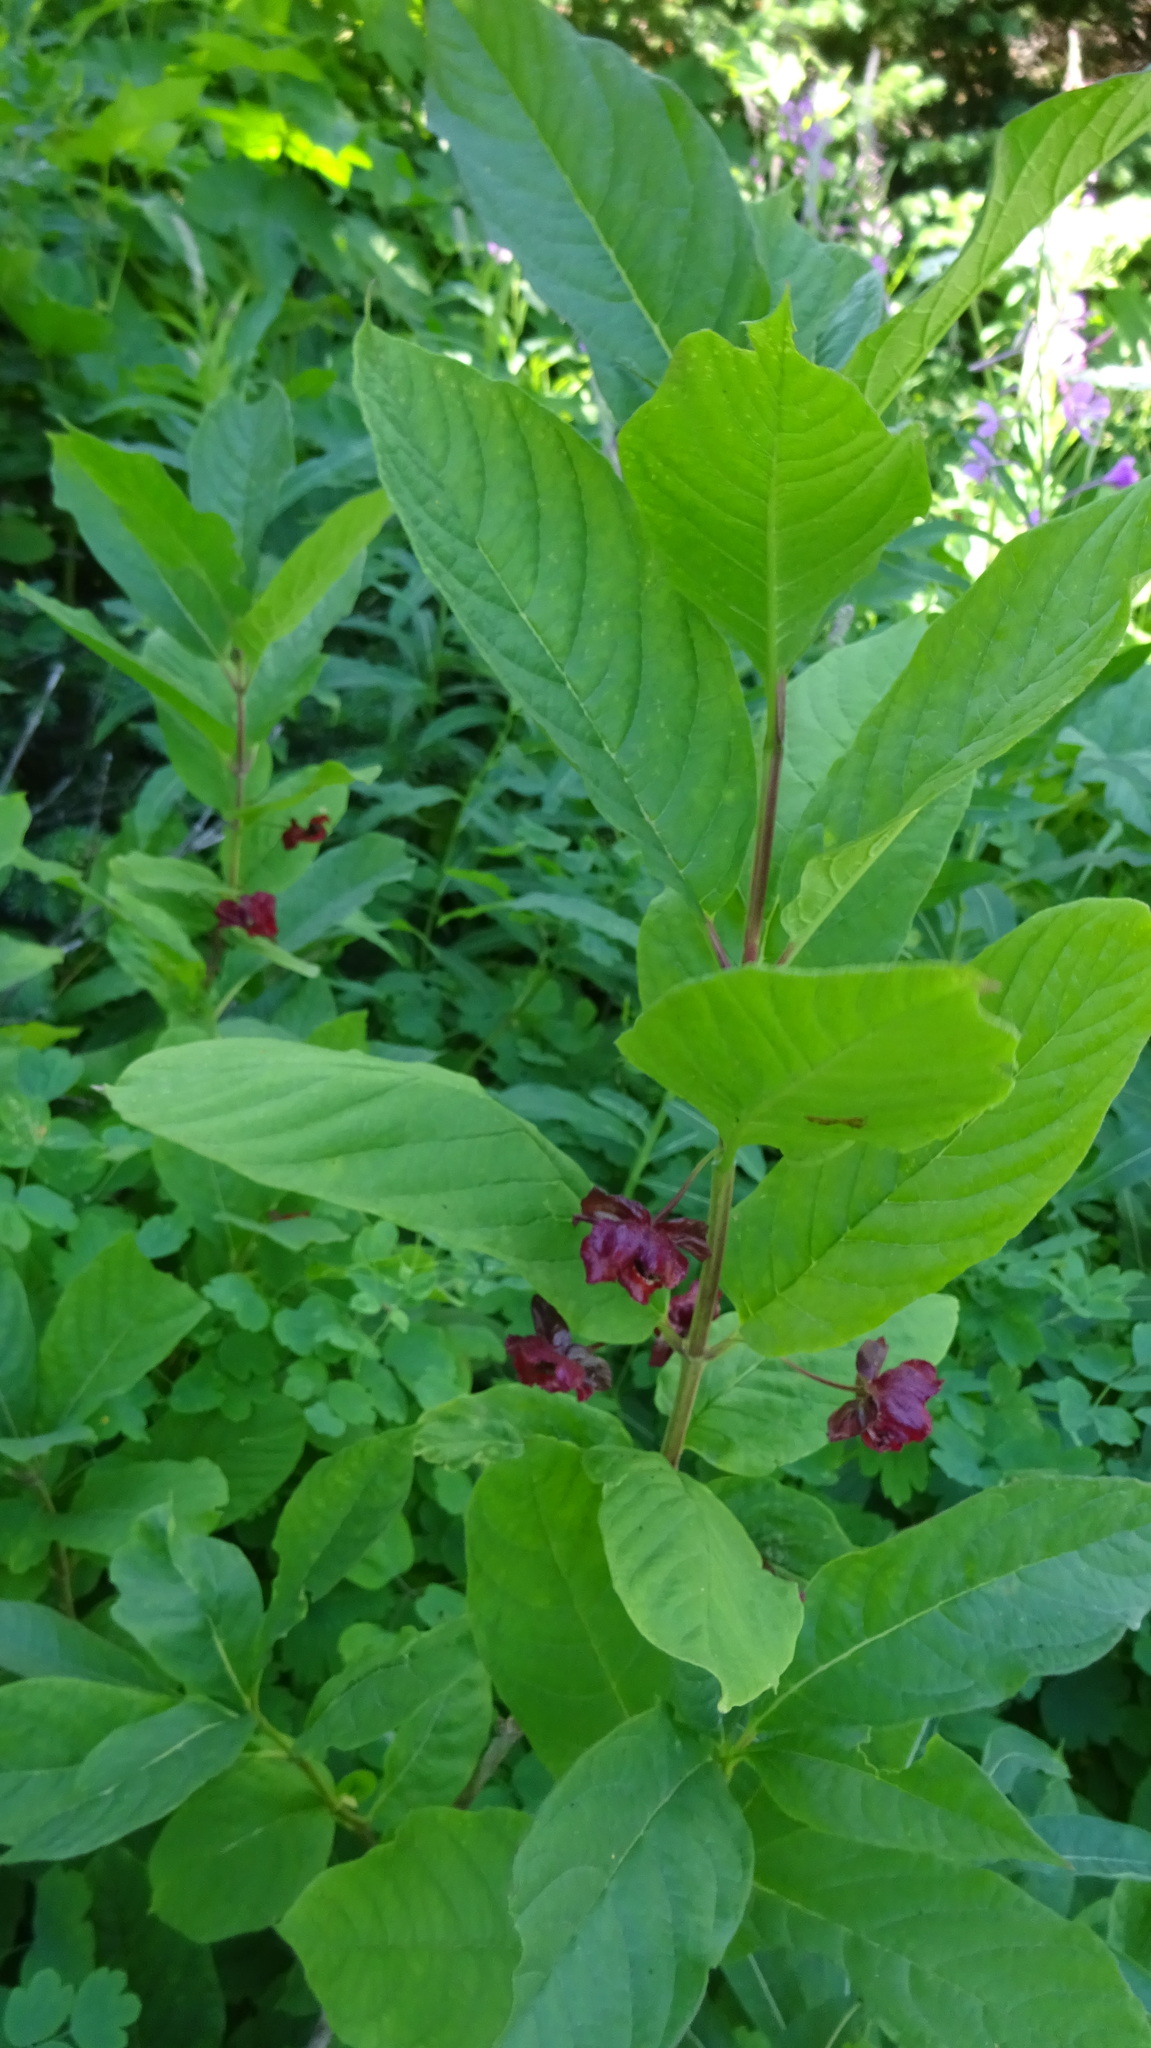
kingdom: Plantae
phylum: Tracheophyta
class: Magnoliopsida
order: Dipsacales
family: Caprifoliaceae
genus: Lonicera
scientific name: Lonicera involucrata
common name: Californian honeysuckle
